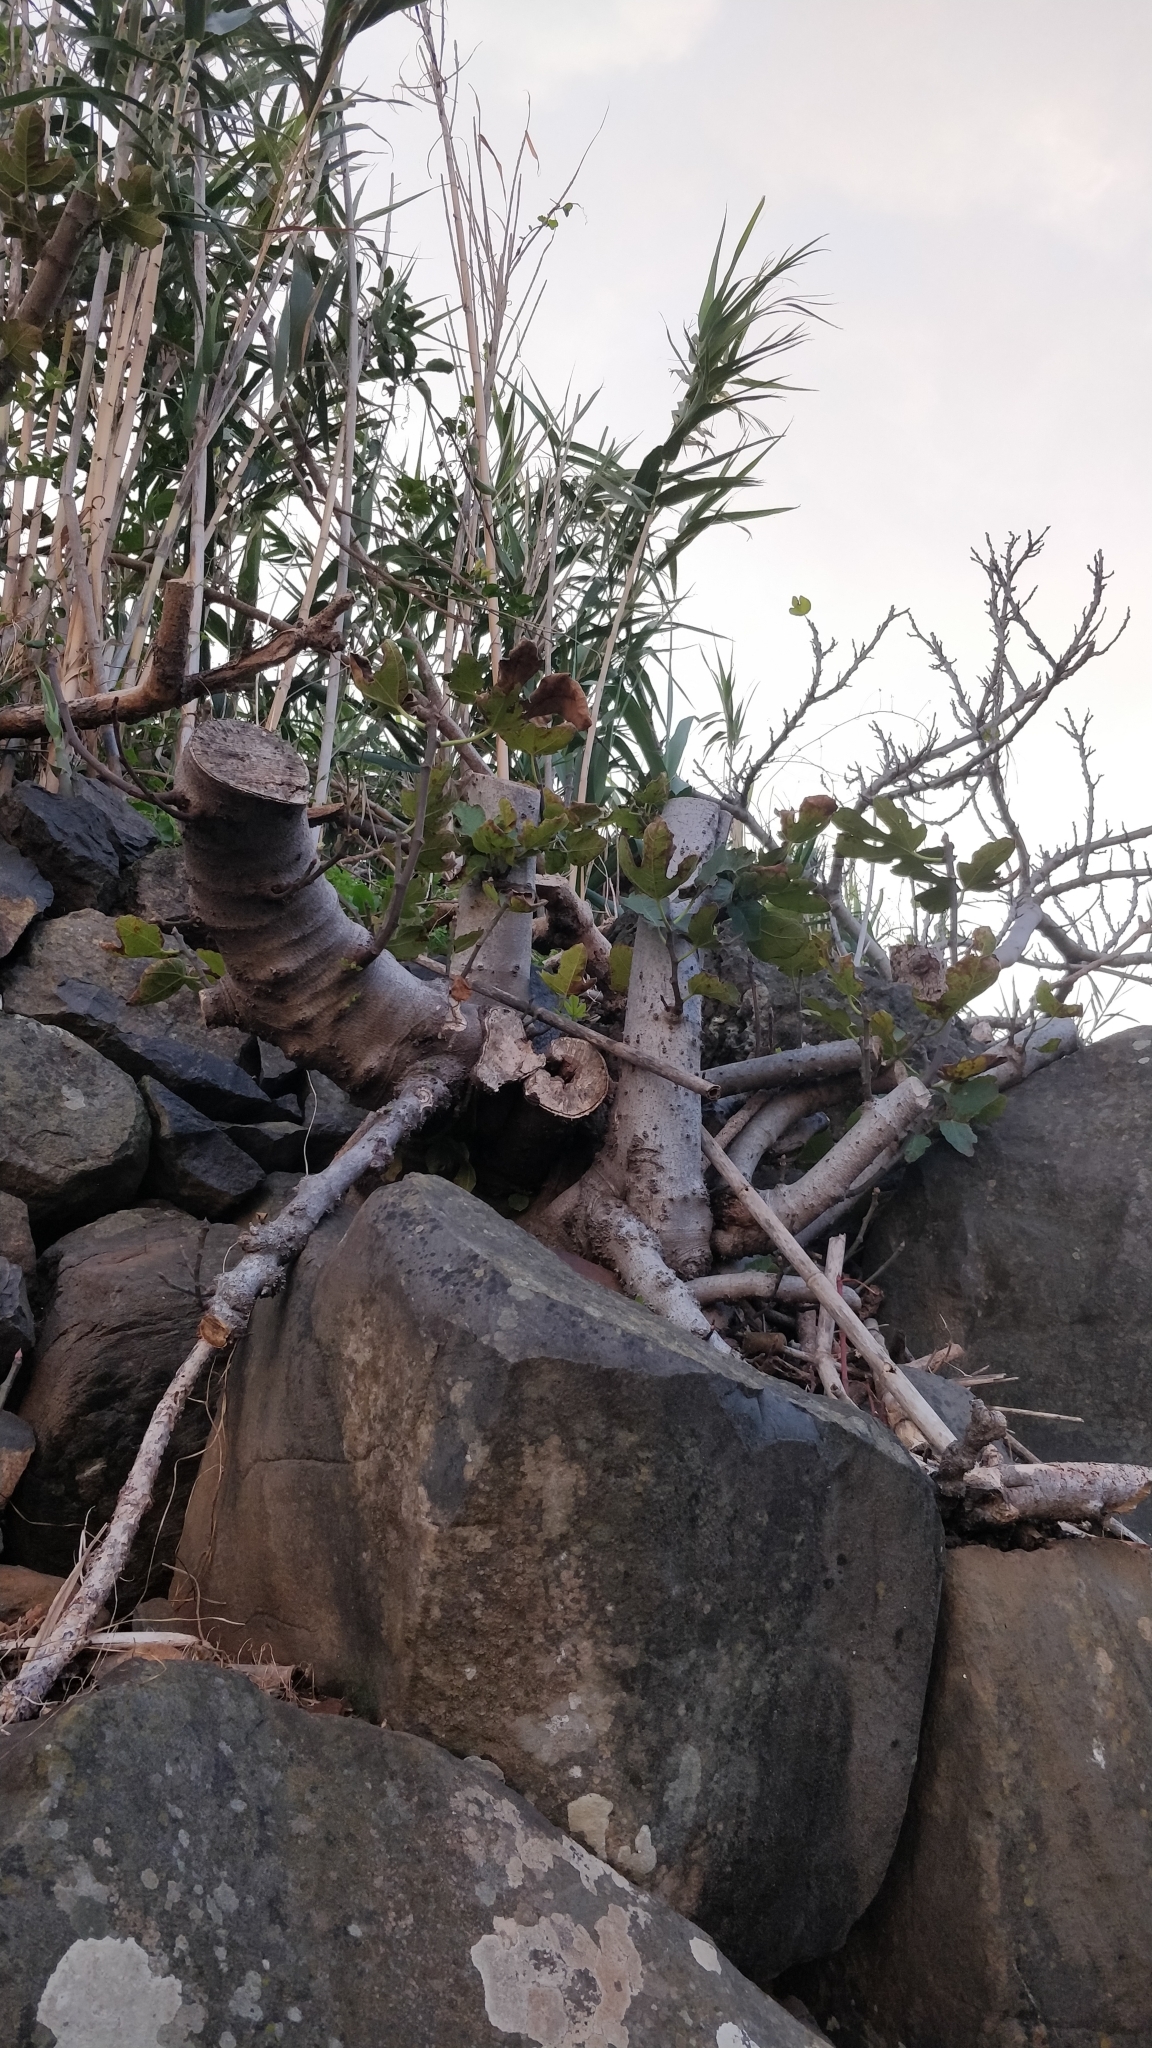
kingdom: Plantae
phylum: Tracheophyta
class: Magnoliopsida
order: Rosales
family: Moraceae
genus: Ficus
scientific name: Ficus carica
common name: Fig
